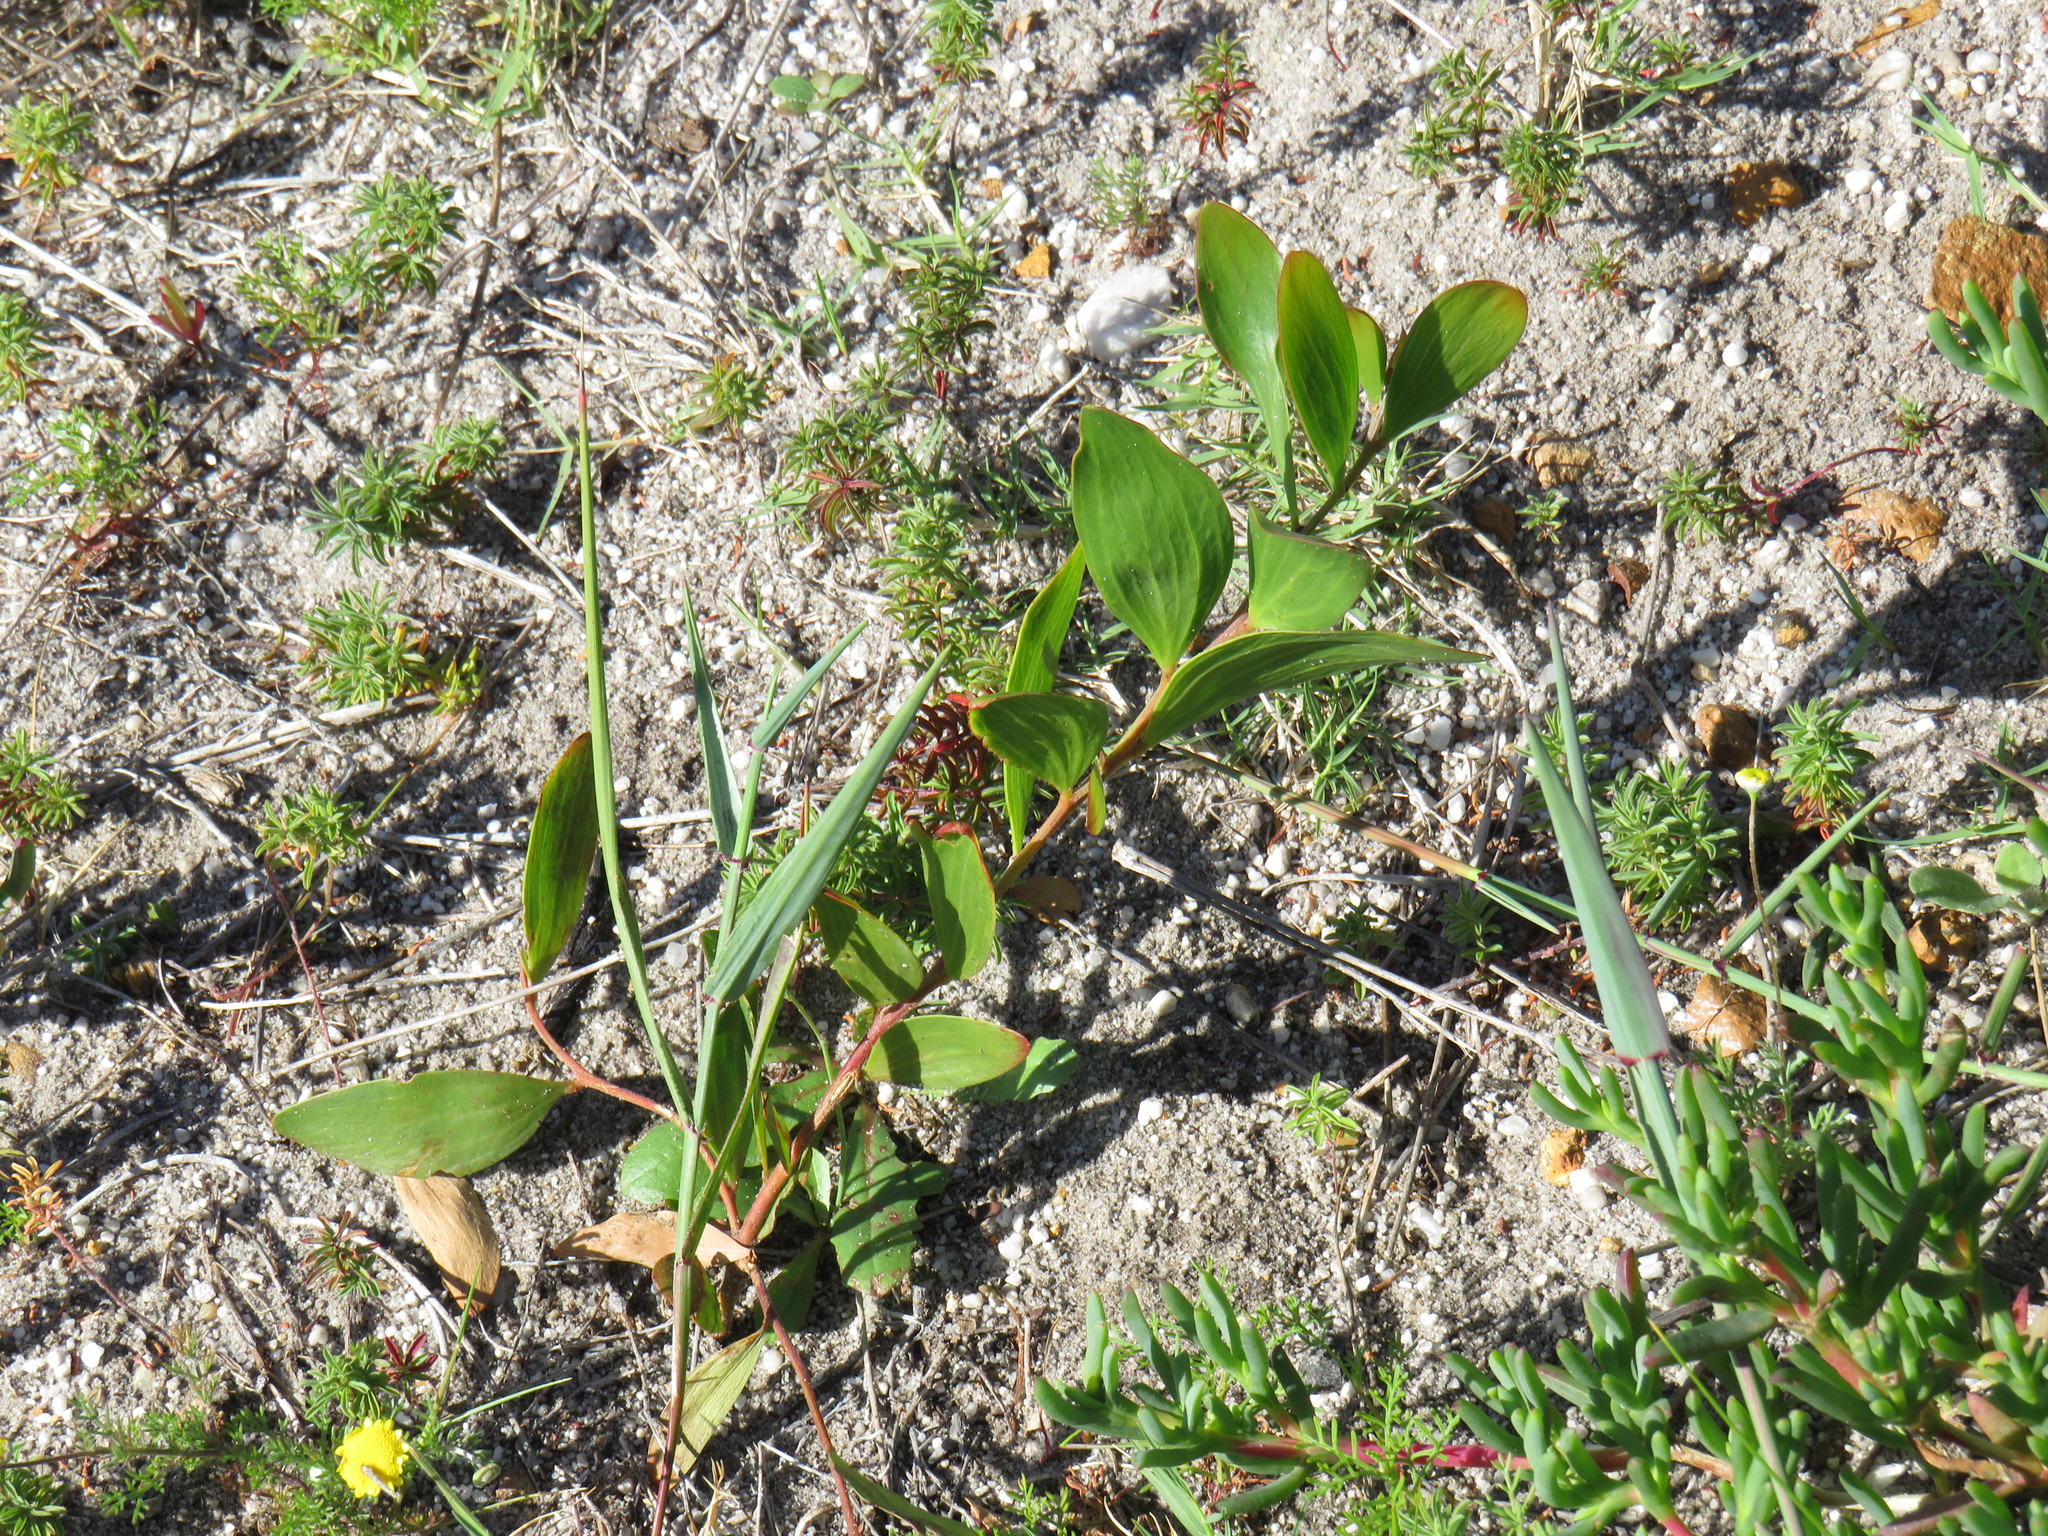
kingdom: Plantae
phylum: Tracheophyta
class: Magnoliopsida
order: Fabales
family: Fabaceae
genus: Acacia
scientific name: Acacia cyclops
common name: Coastal wattle
